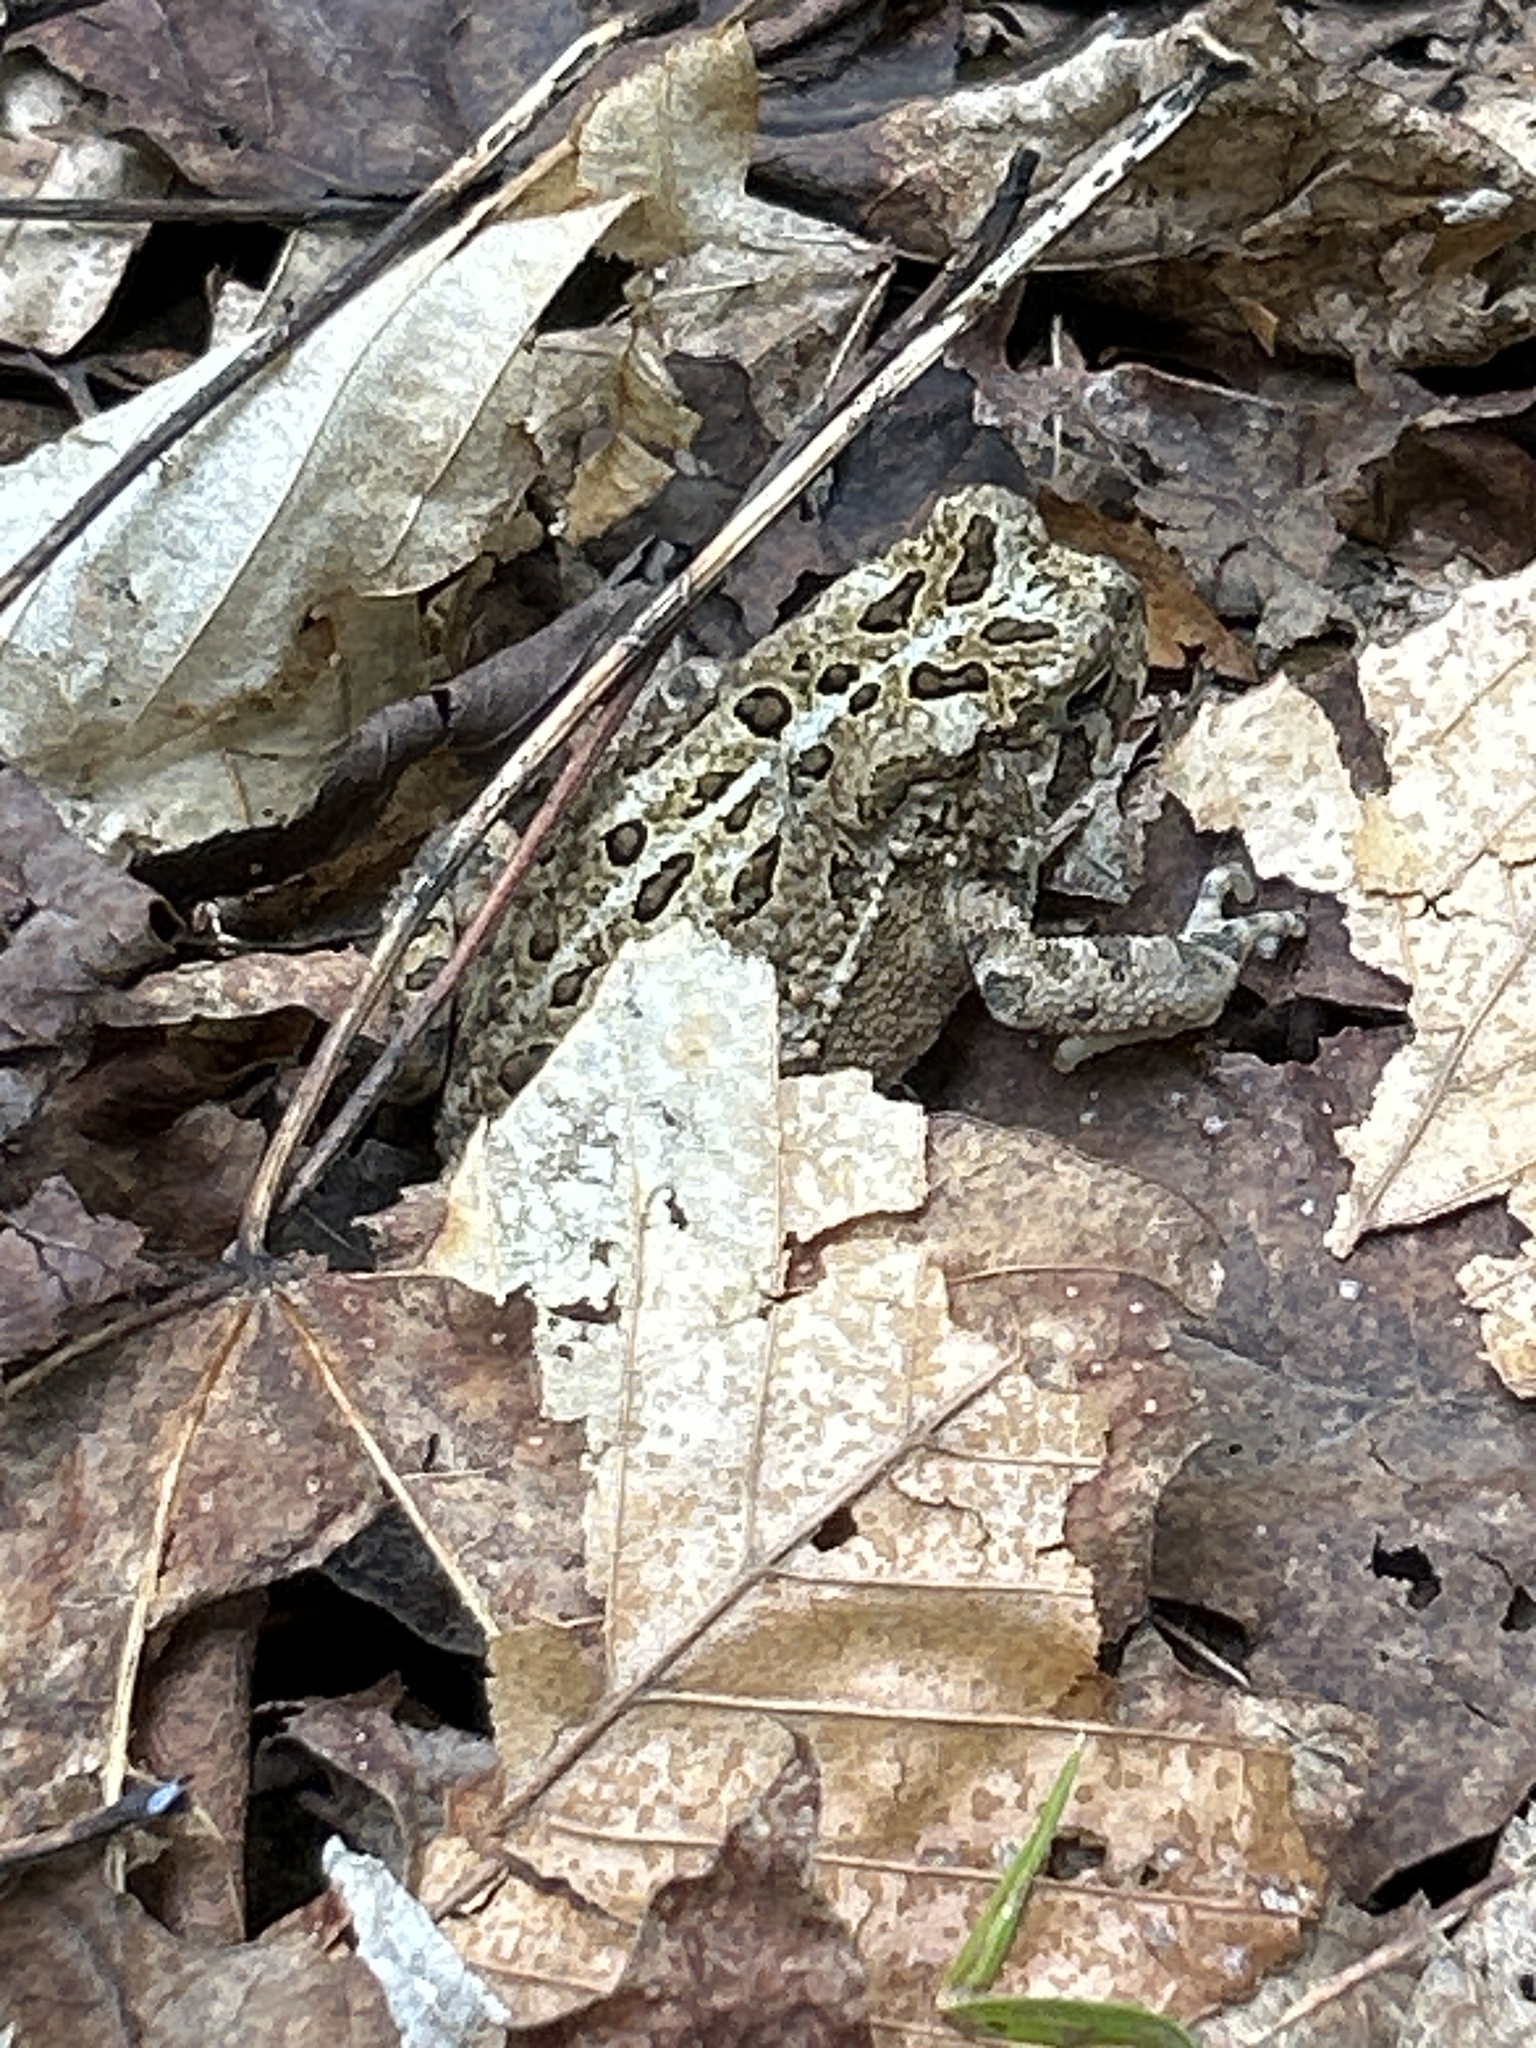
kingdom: Animalia
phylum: Chordata
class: Amphibia
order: Anura
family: Bufonidae
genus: Anaxyrus
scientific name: Anaxyrus americanus
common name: American toad
